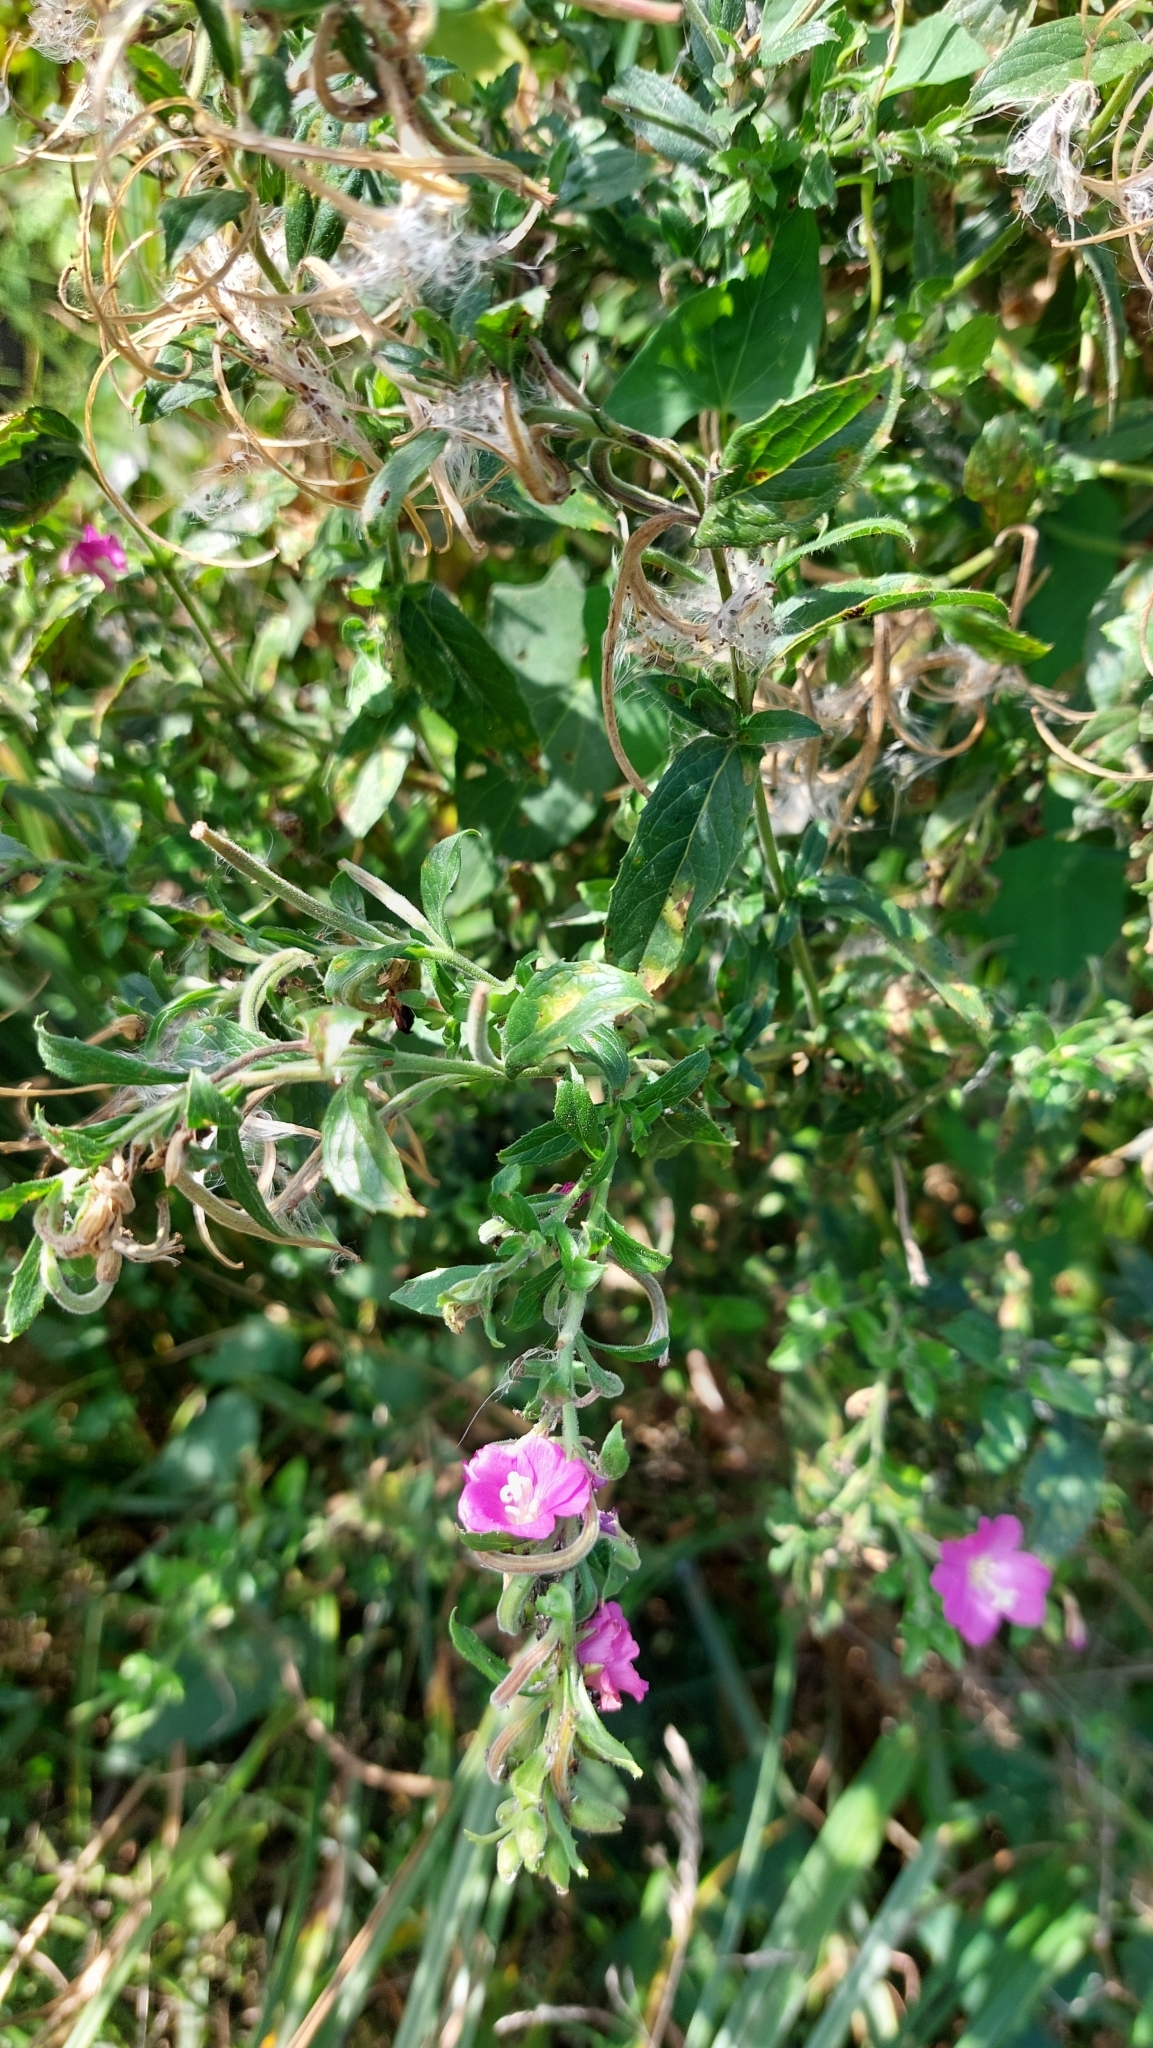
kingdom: Plantae
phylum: Tracheophyta
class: Magnoliopsida
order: Myrtales
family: Onagraceae
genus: Epilobium
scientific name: Epilobium hirsutum
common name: Great willowherb
